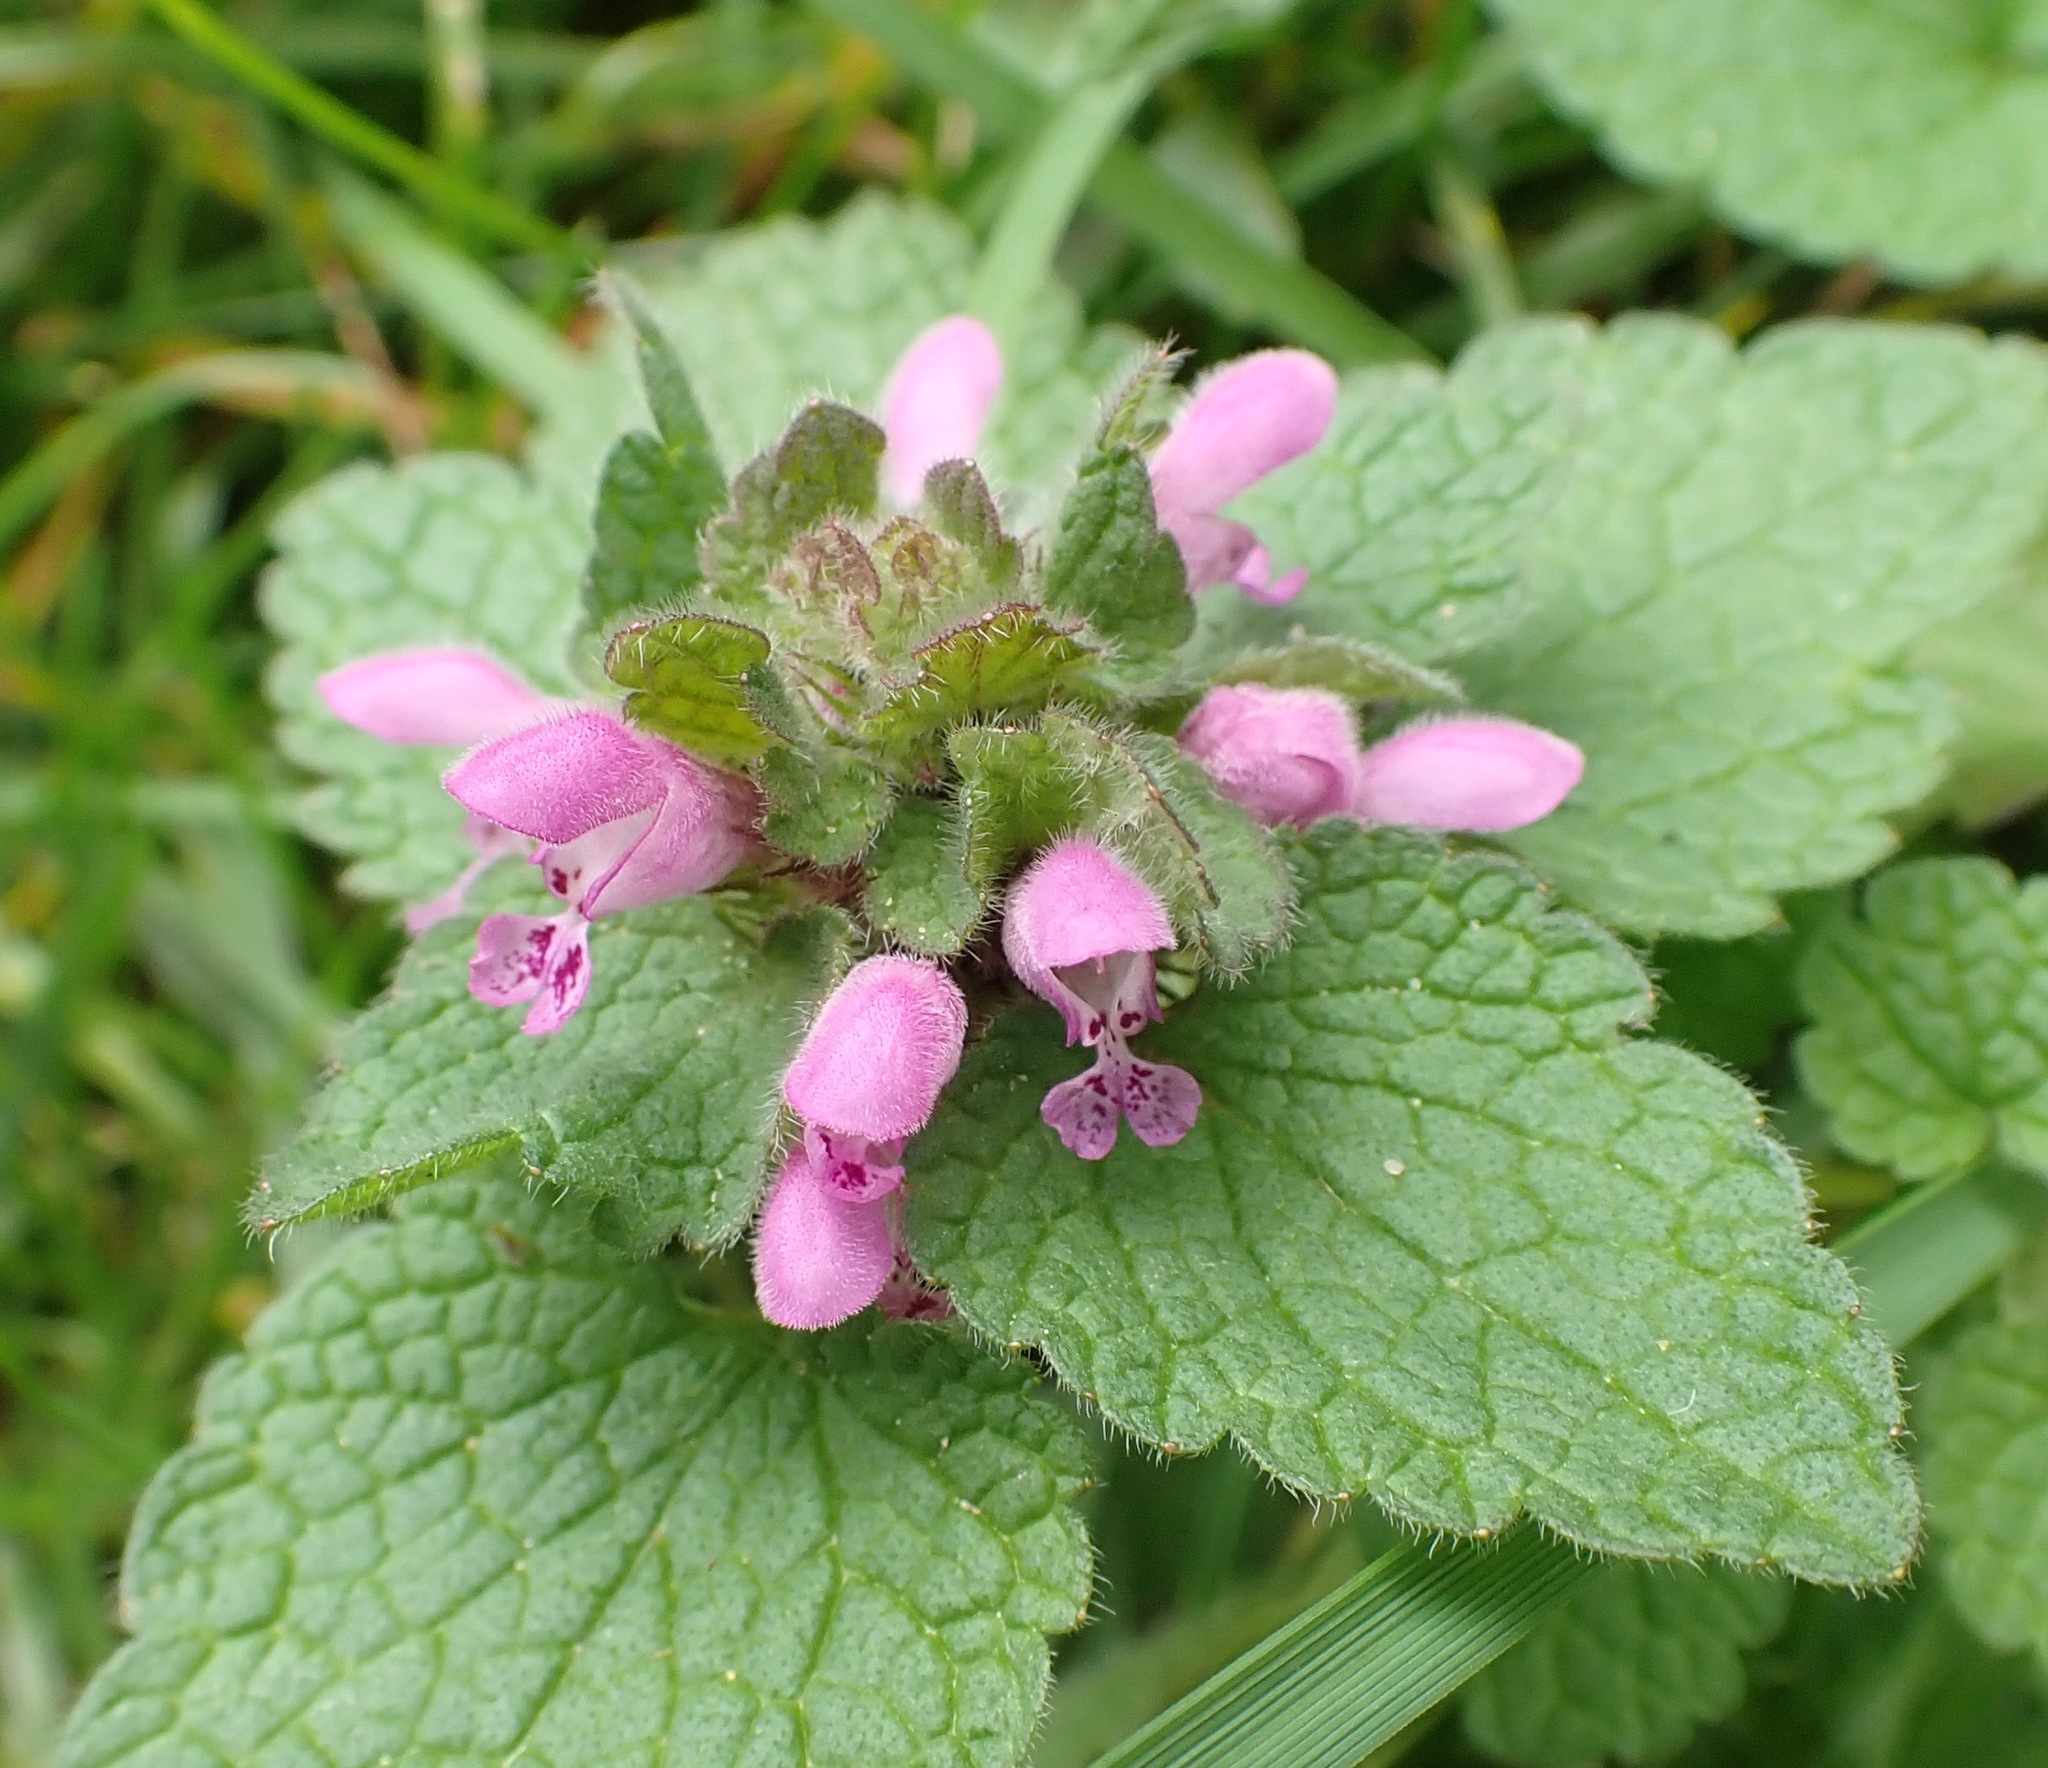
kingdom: Plantae
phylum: Tracheophyta
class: Magnoliopsida
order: Lamiales
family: Lamiaceae
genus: Lamium
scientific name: Lamium purpureum
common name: Red dead-nettle
